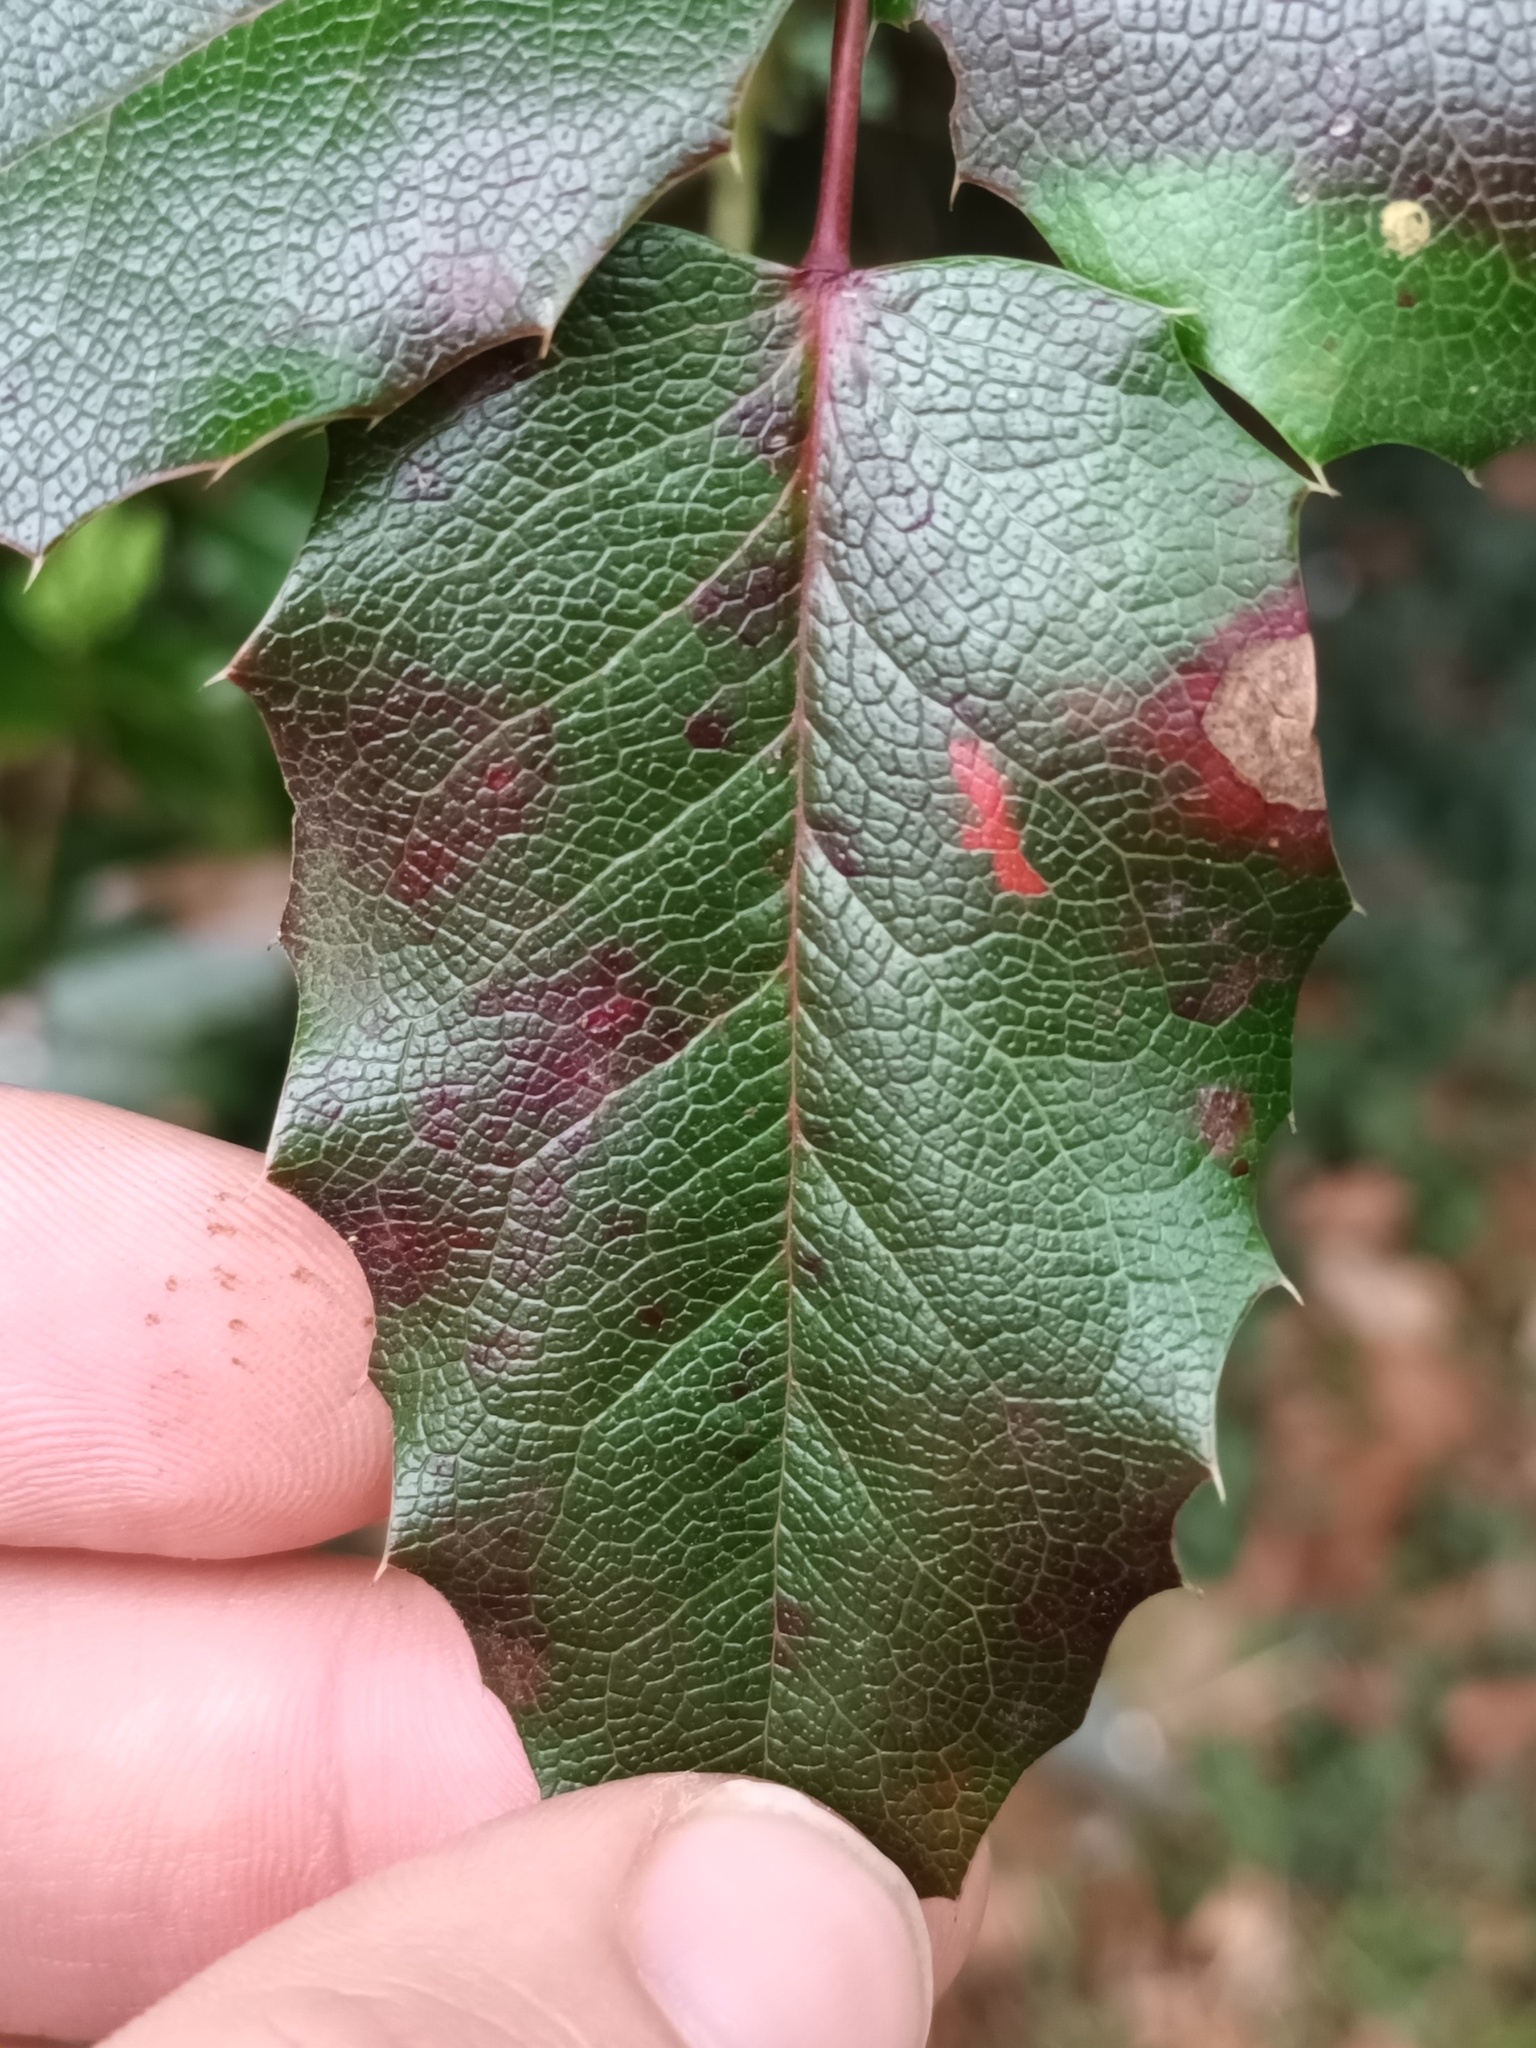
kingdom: Fungi
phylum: Basidiomycota
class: Pucciniomycetes
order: Pucciniales
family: Pucciniaceae
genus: Cumminsiella
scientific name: Cumminsiella mirabilissima
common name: Mahonia rust
